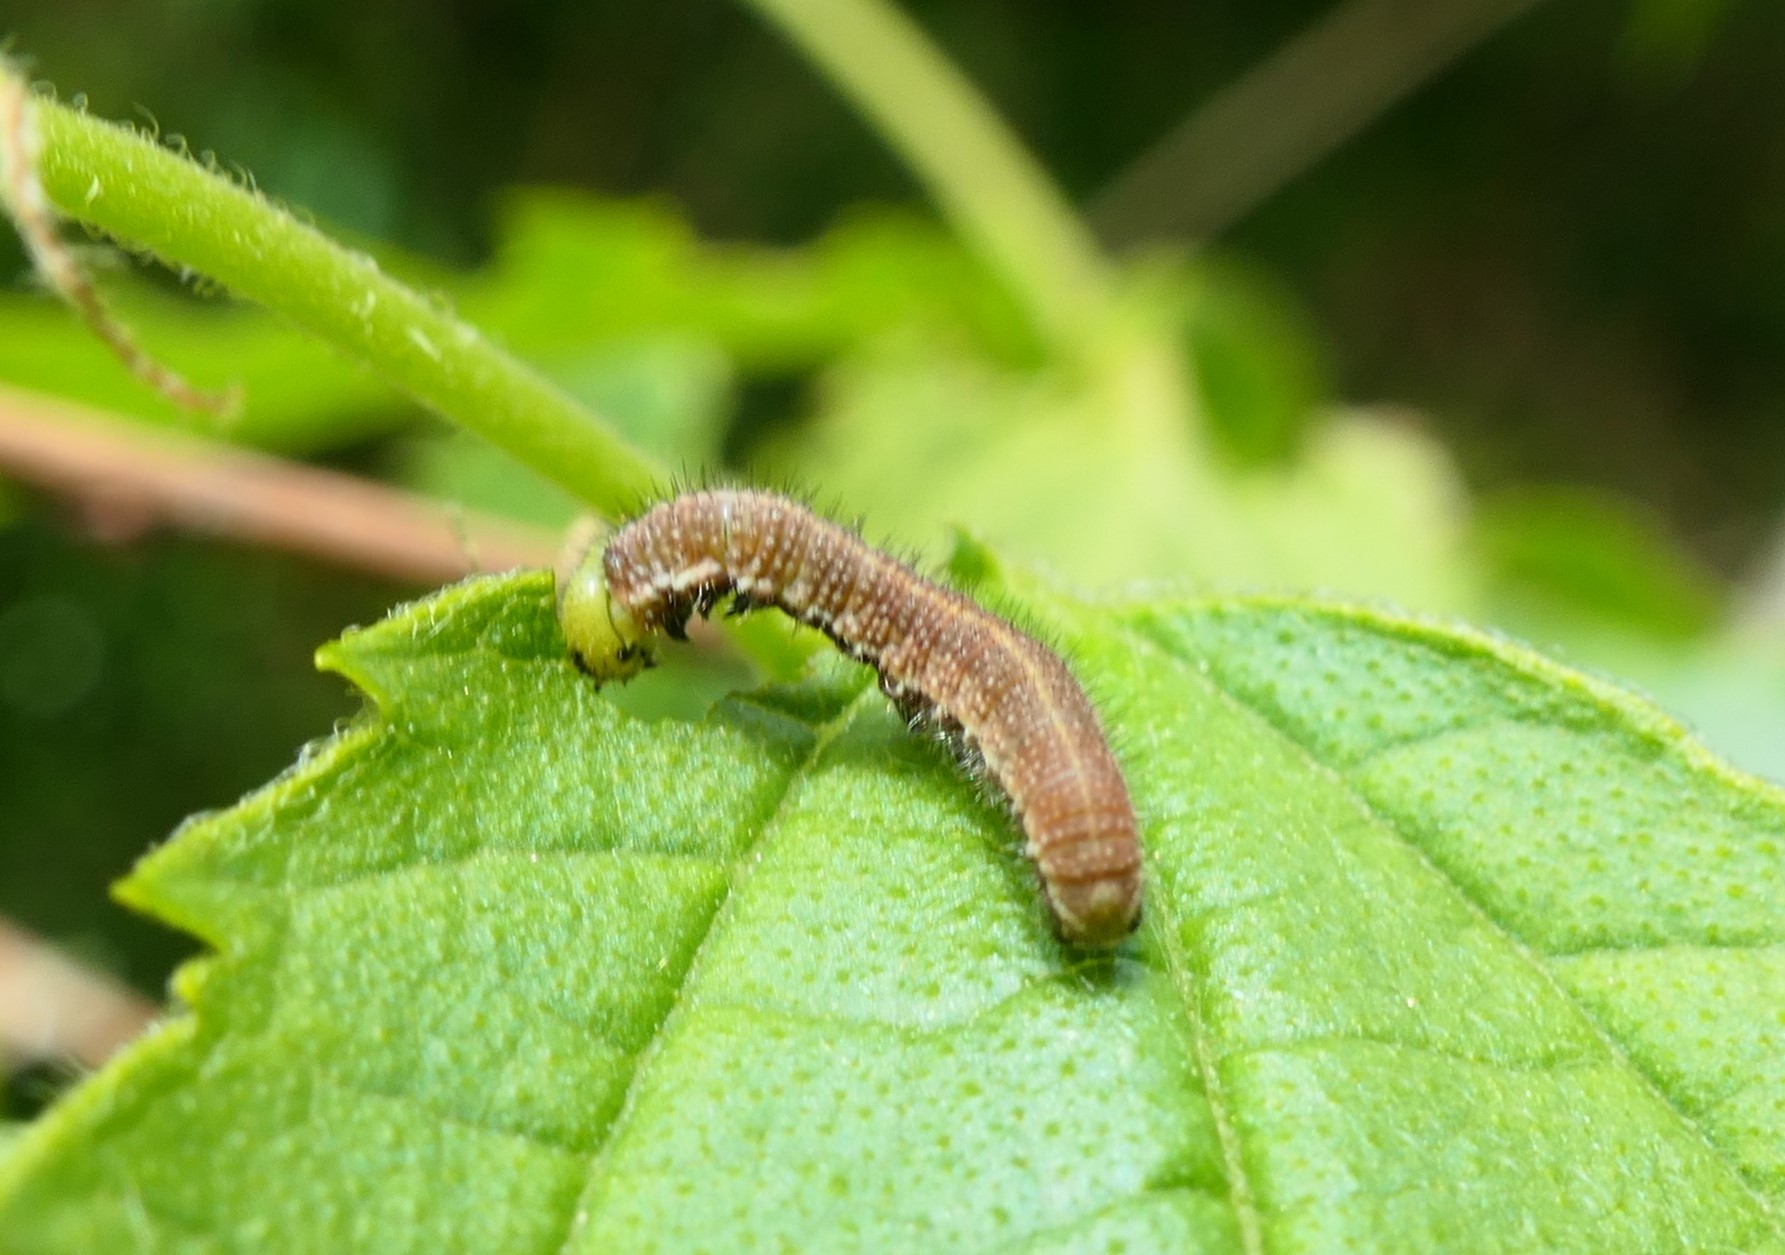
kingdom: Animalia
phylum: Arthropoda
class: Insecta
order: Lepidoptera
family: Nymphalidae
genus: Libythea
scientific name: Libythea celtis
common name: Nettle-tree butterfly
